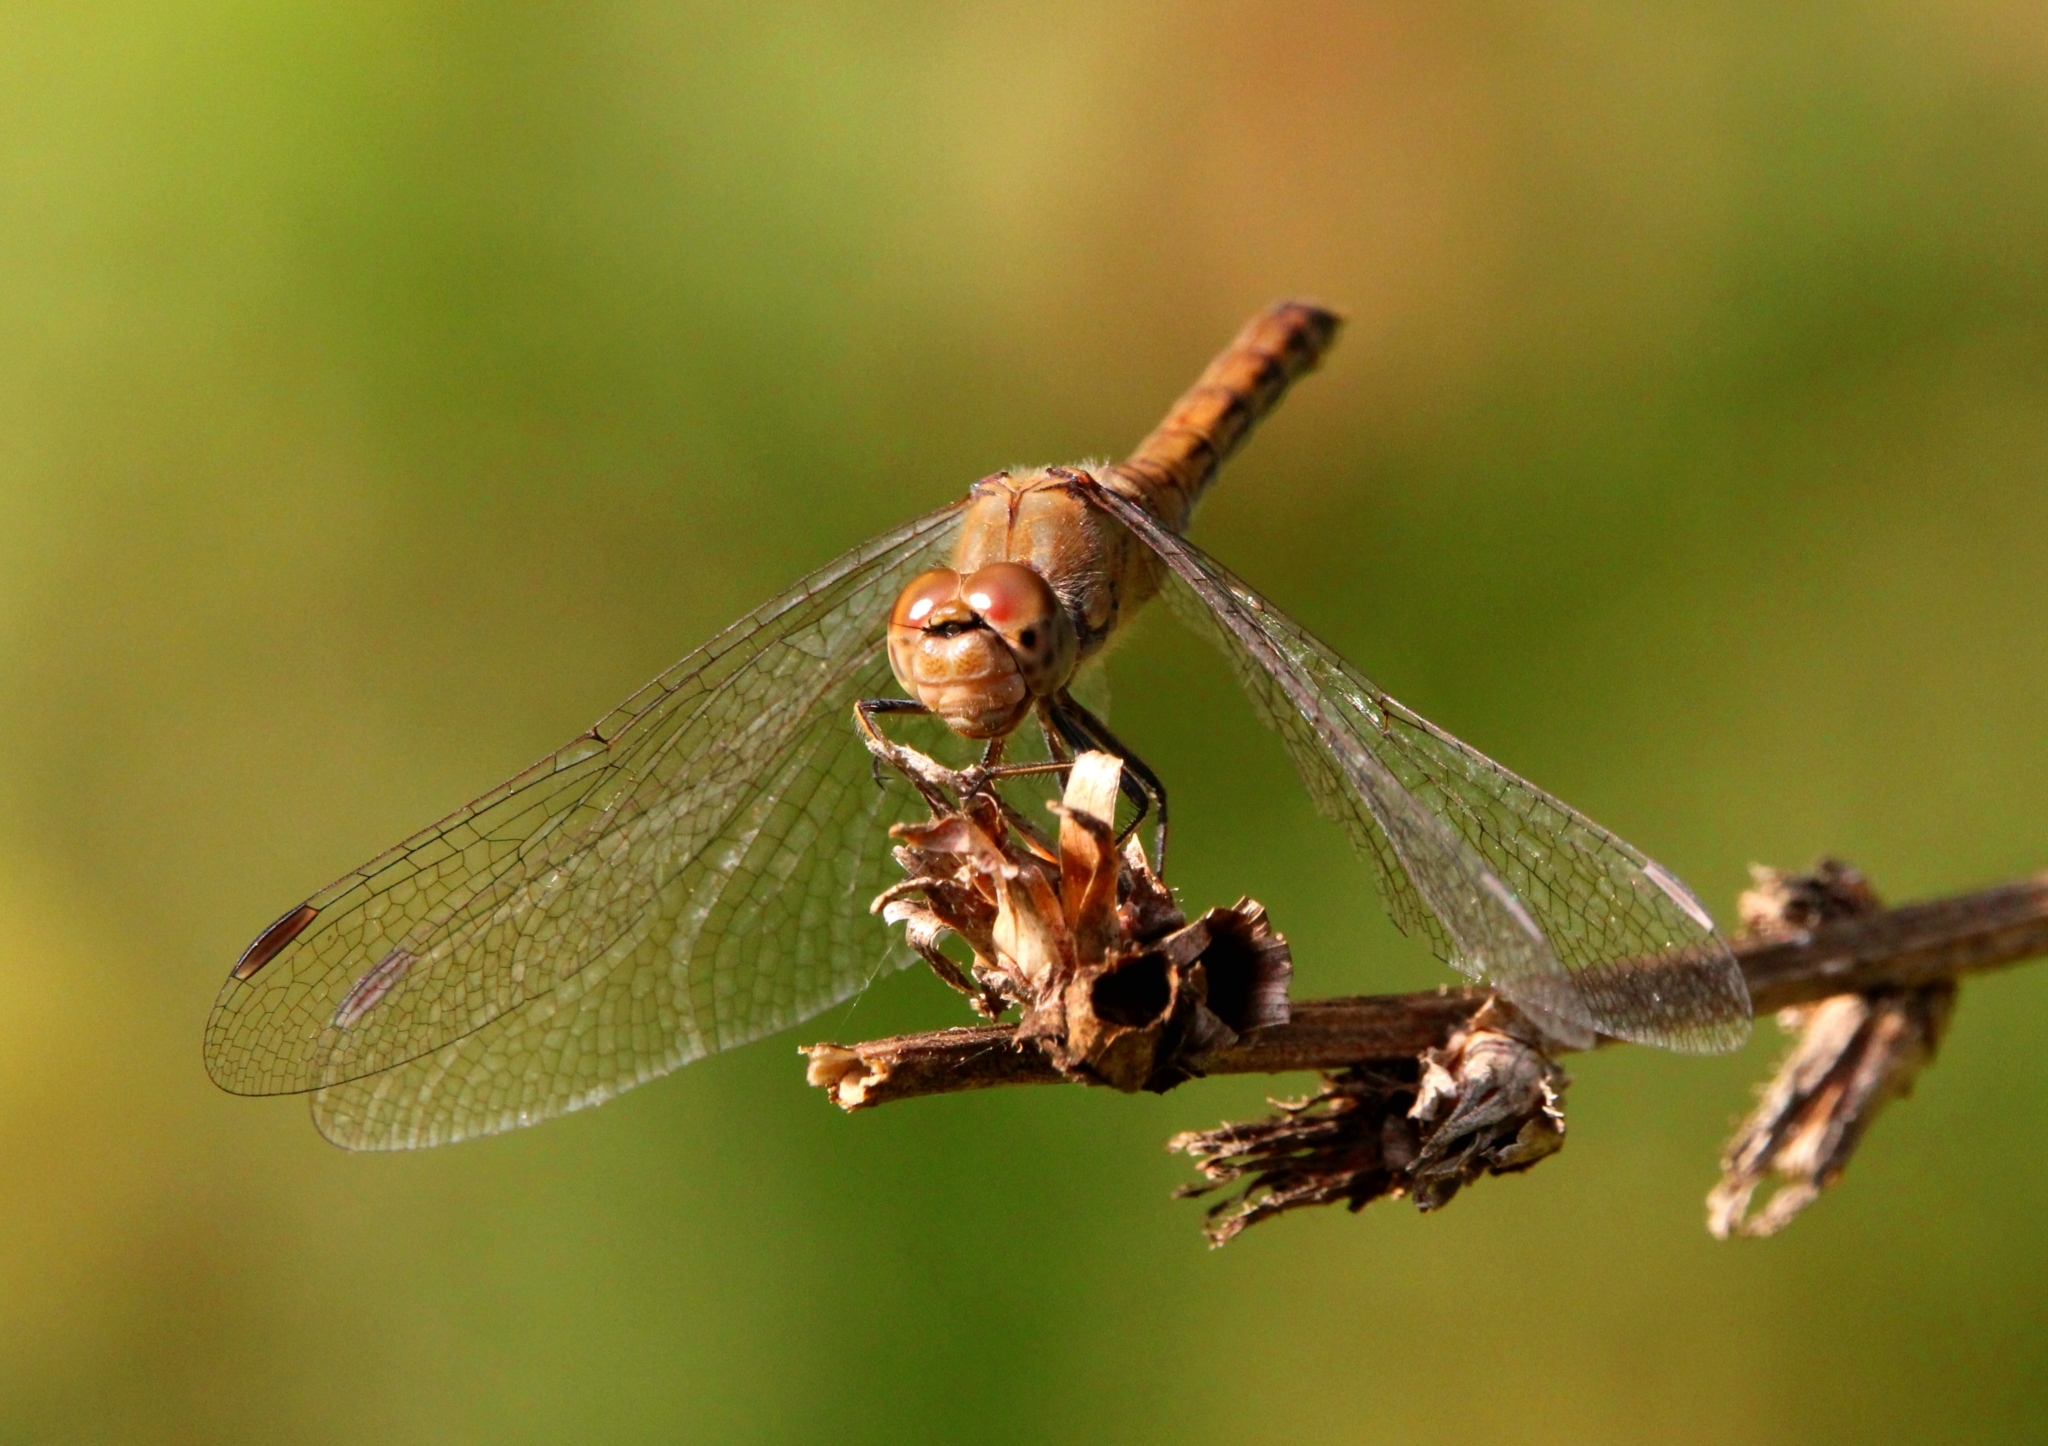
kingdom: Animalia
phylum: Arthropoda
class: Insecta
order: Odonata
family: Libellulidae
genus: Sympetrum
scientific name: Sympetrum striolatum
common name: Common darter
